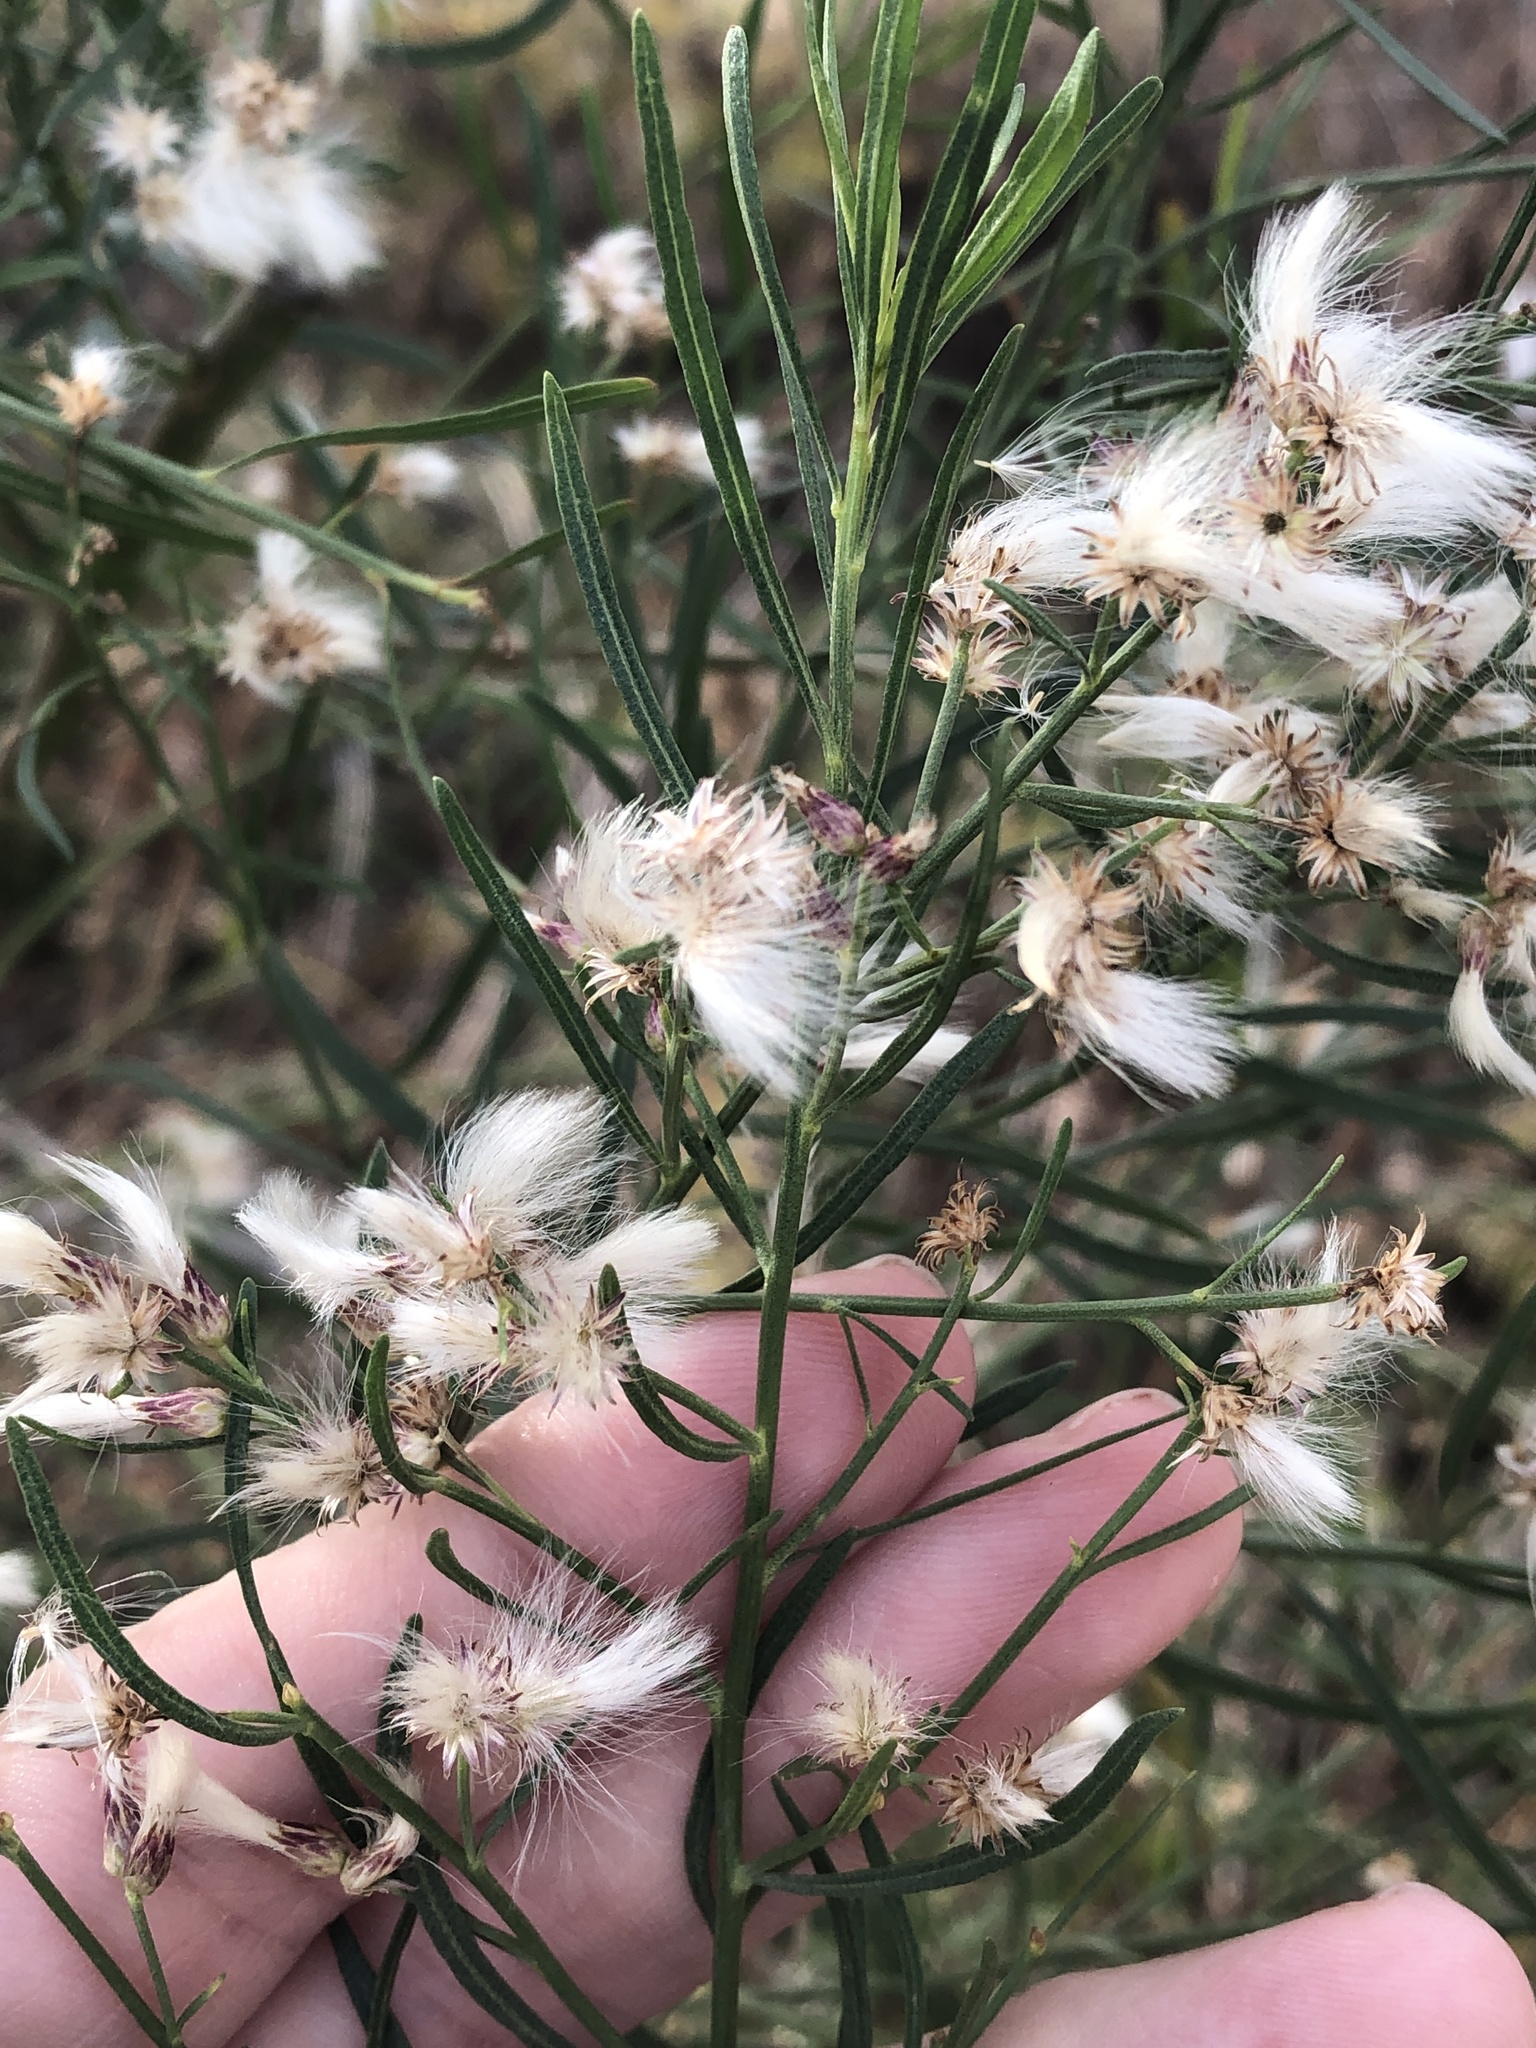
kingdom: Plantae
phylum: Tracheophyta
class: Magnoliopsida
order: Asterales
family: Asteraceae
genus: Baccharis
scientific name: Baccharis neglecta
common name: Roosevelt-weed
